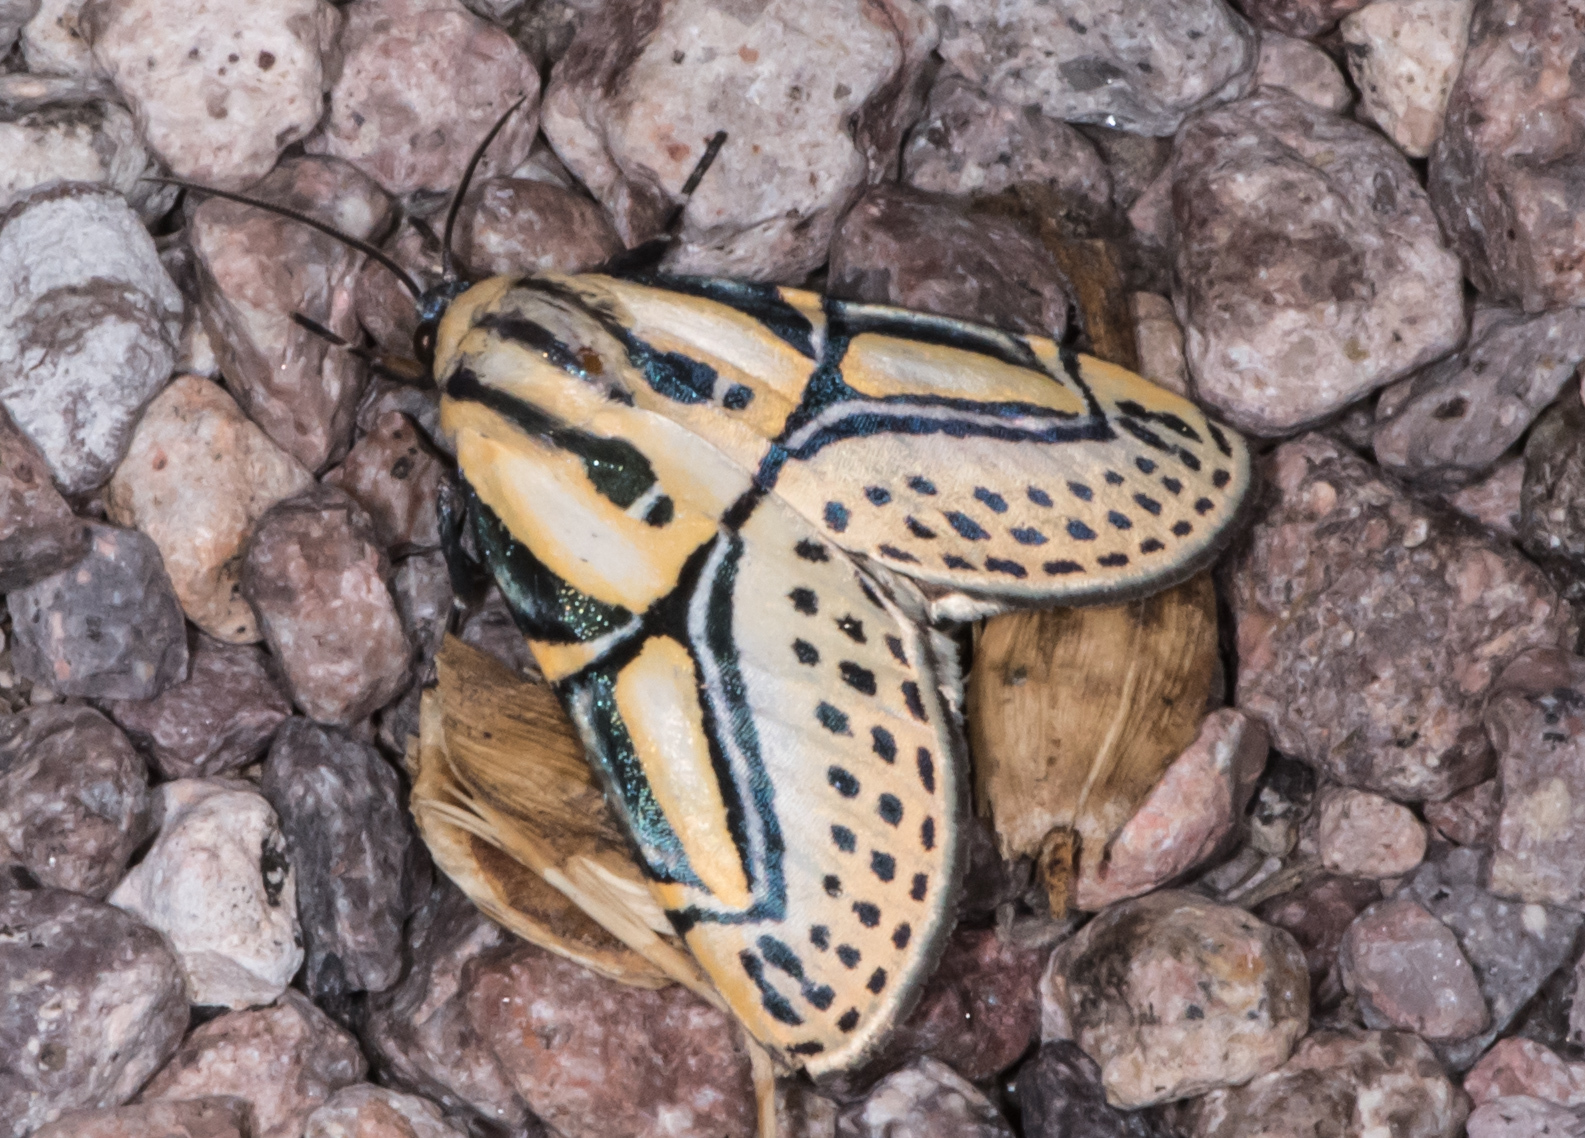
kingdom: Animalia
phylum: Arthropoda
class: Insecta
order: Lepidoptera
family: Erebidae
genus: Diphthera
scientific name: Diphthera festiva
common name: Hieroglyphic moth
